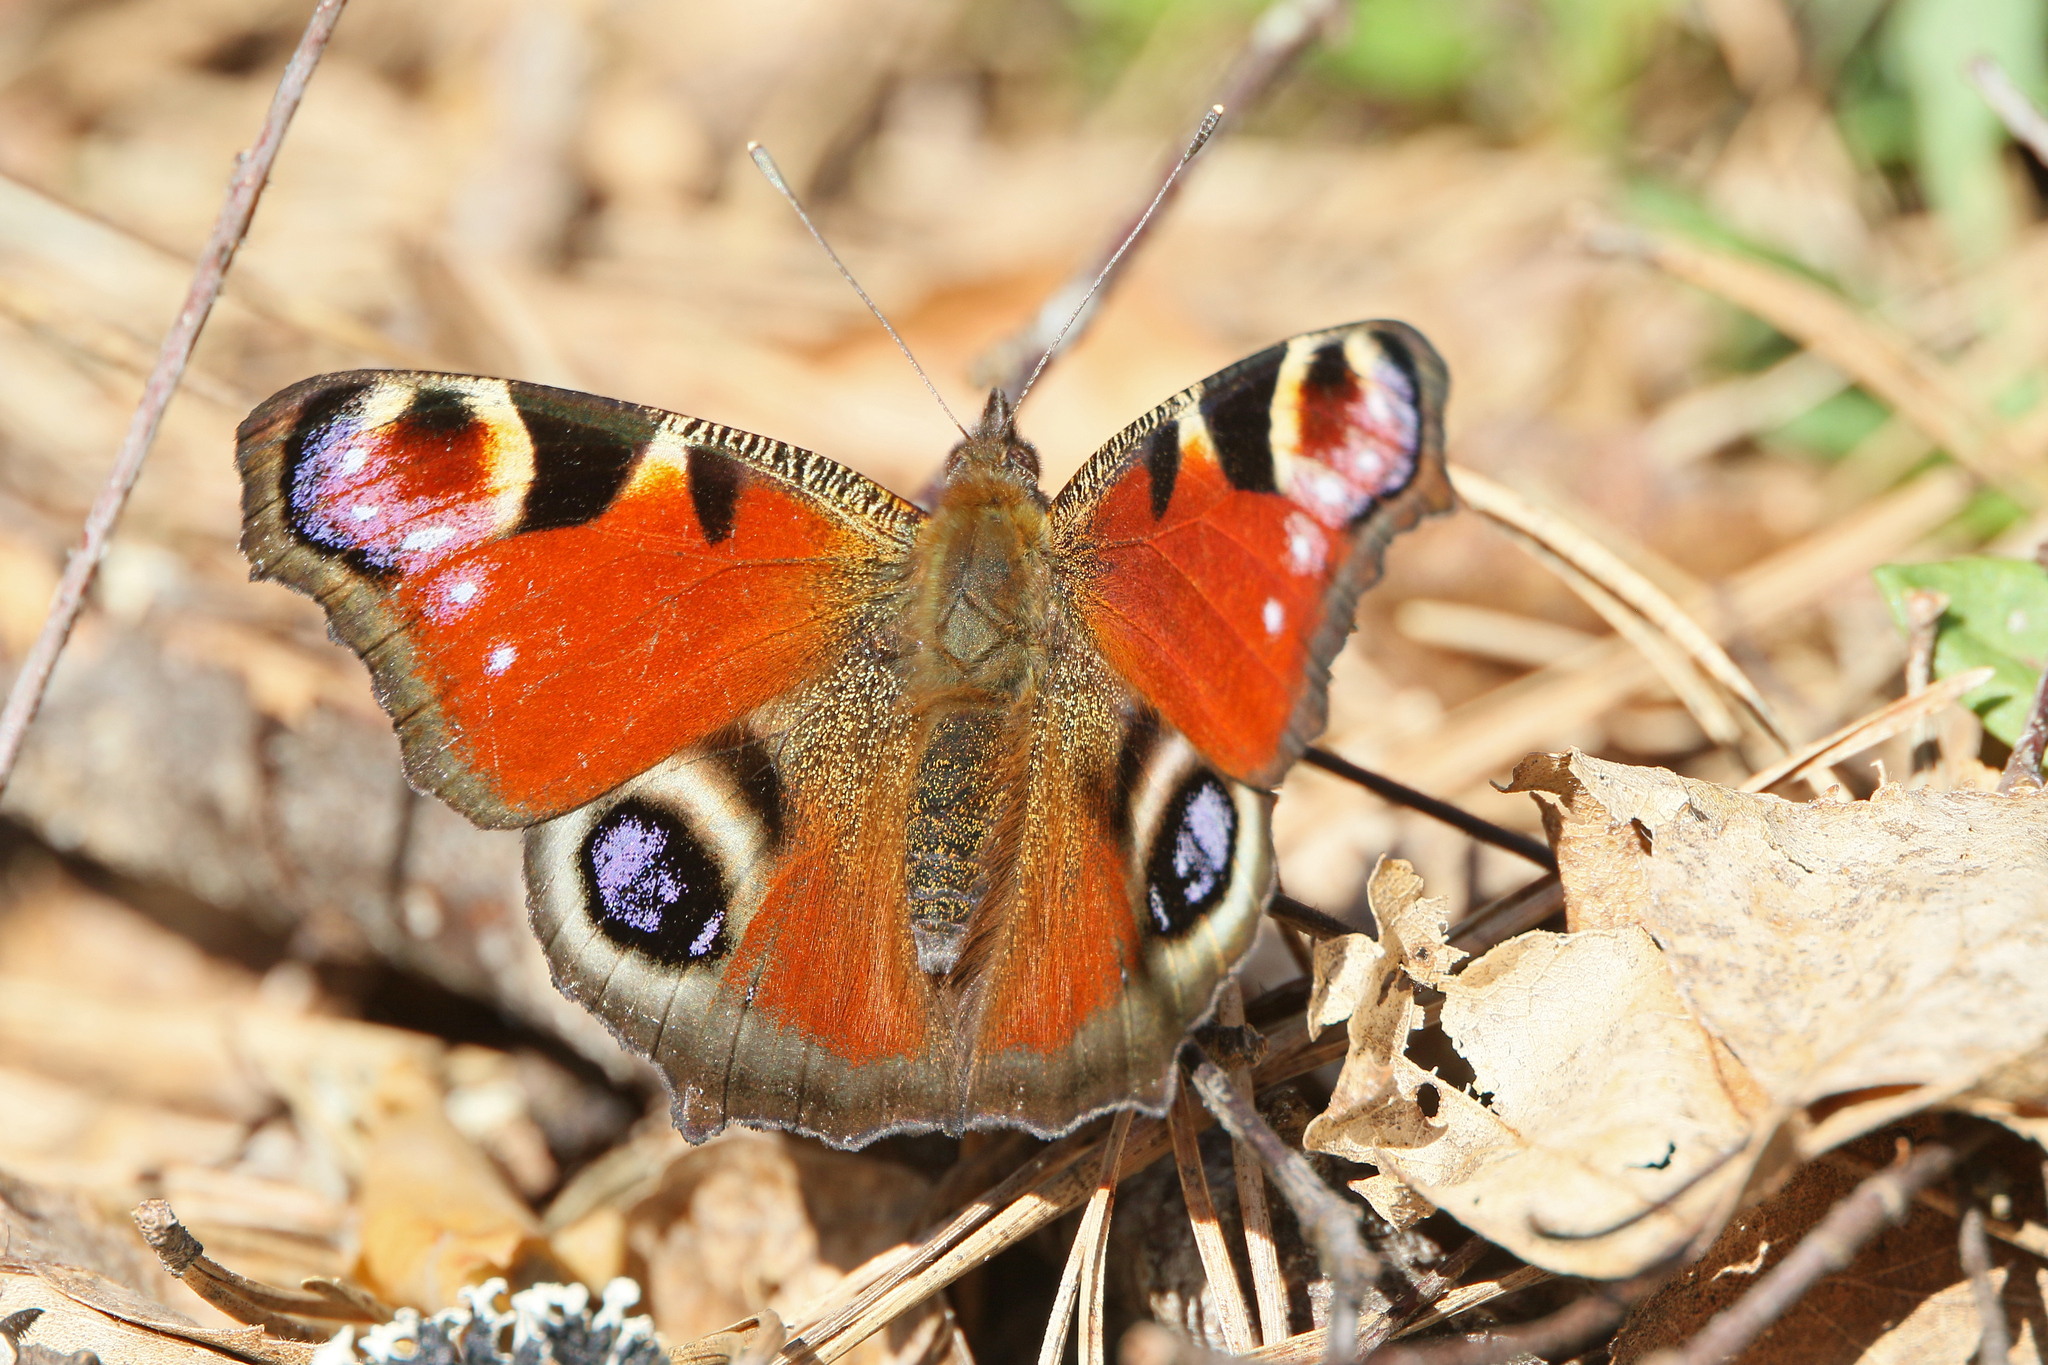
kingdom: Animalia
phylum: Arthropoda
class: Insecta
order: Lepidoptera
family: Nymphalidae
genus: Aglais
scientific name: Aglais io
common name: Peacock
